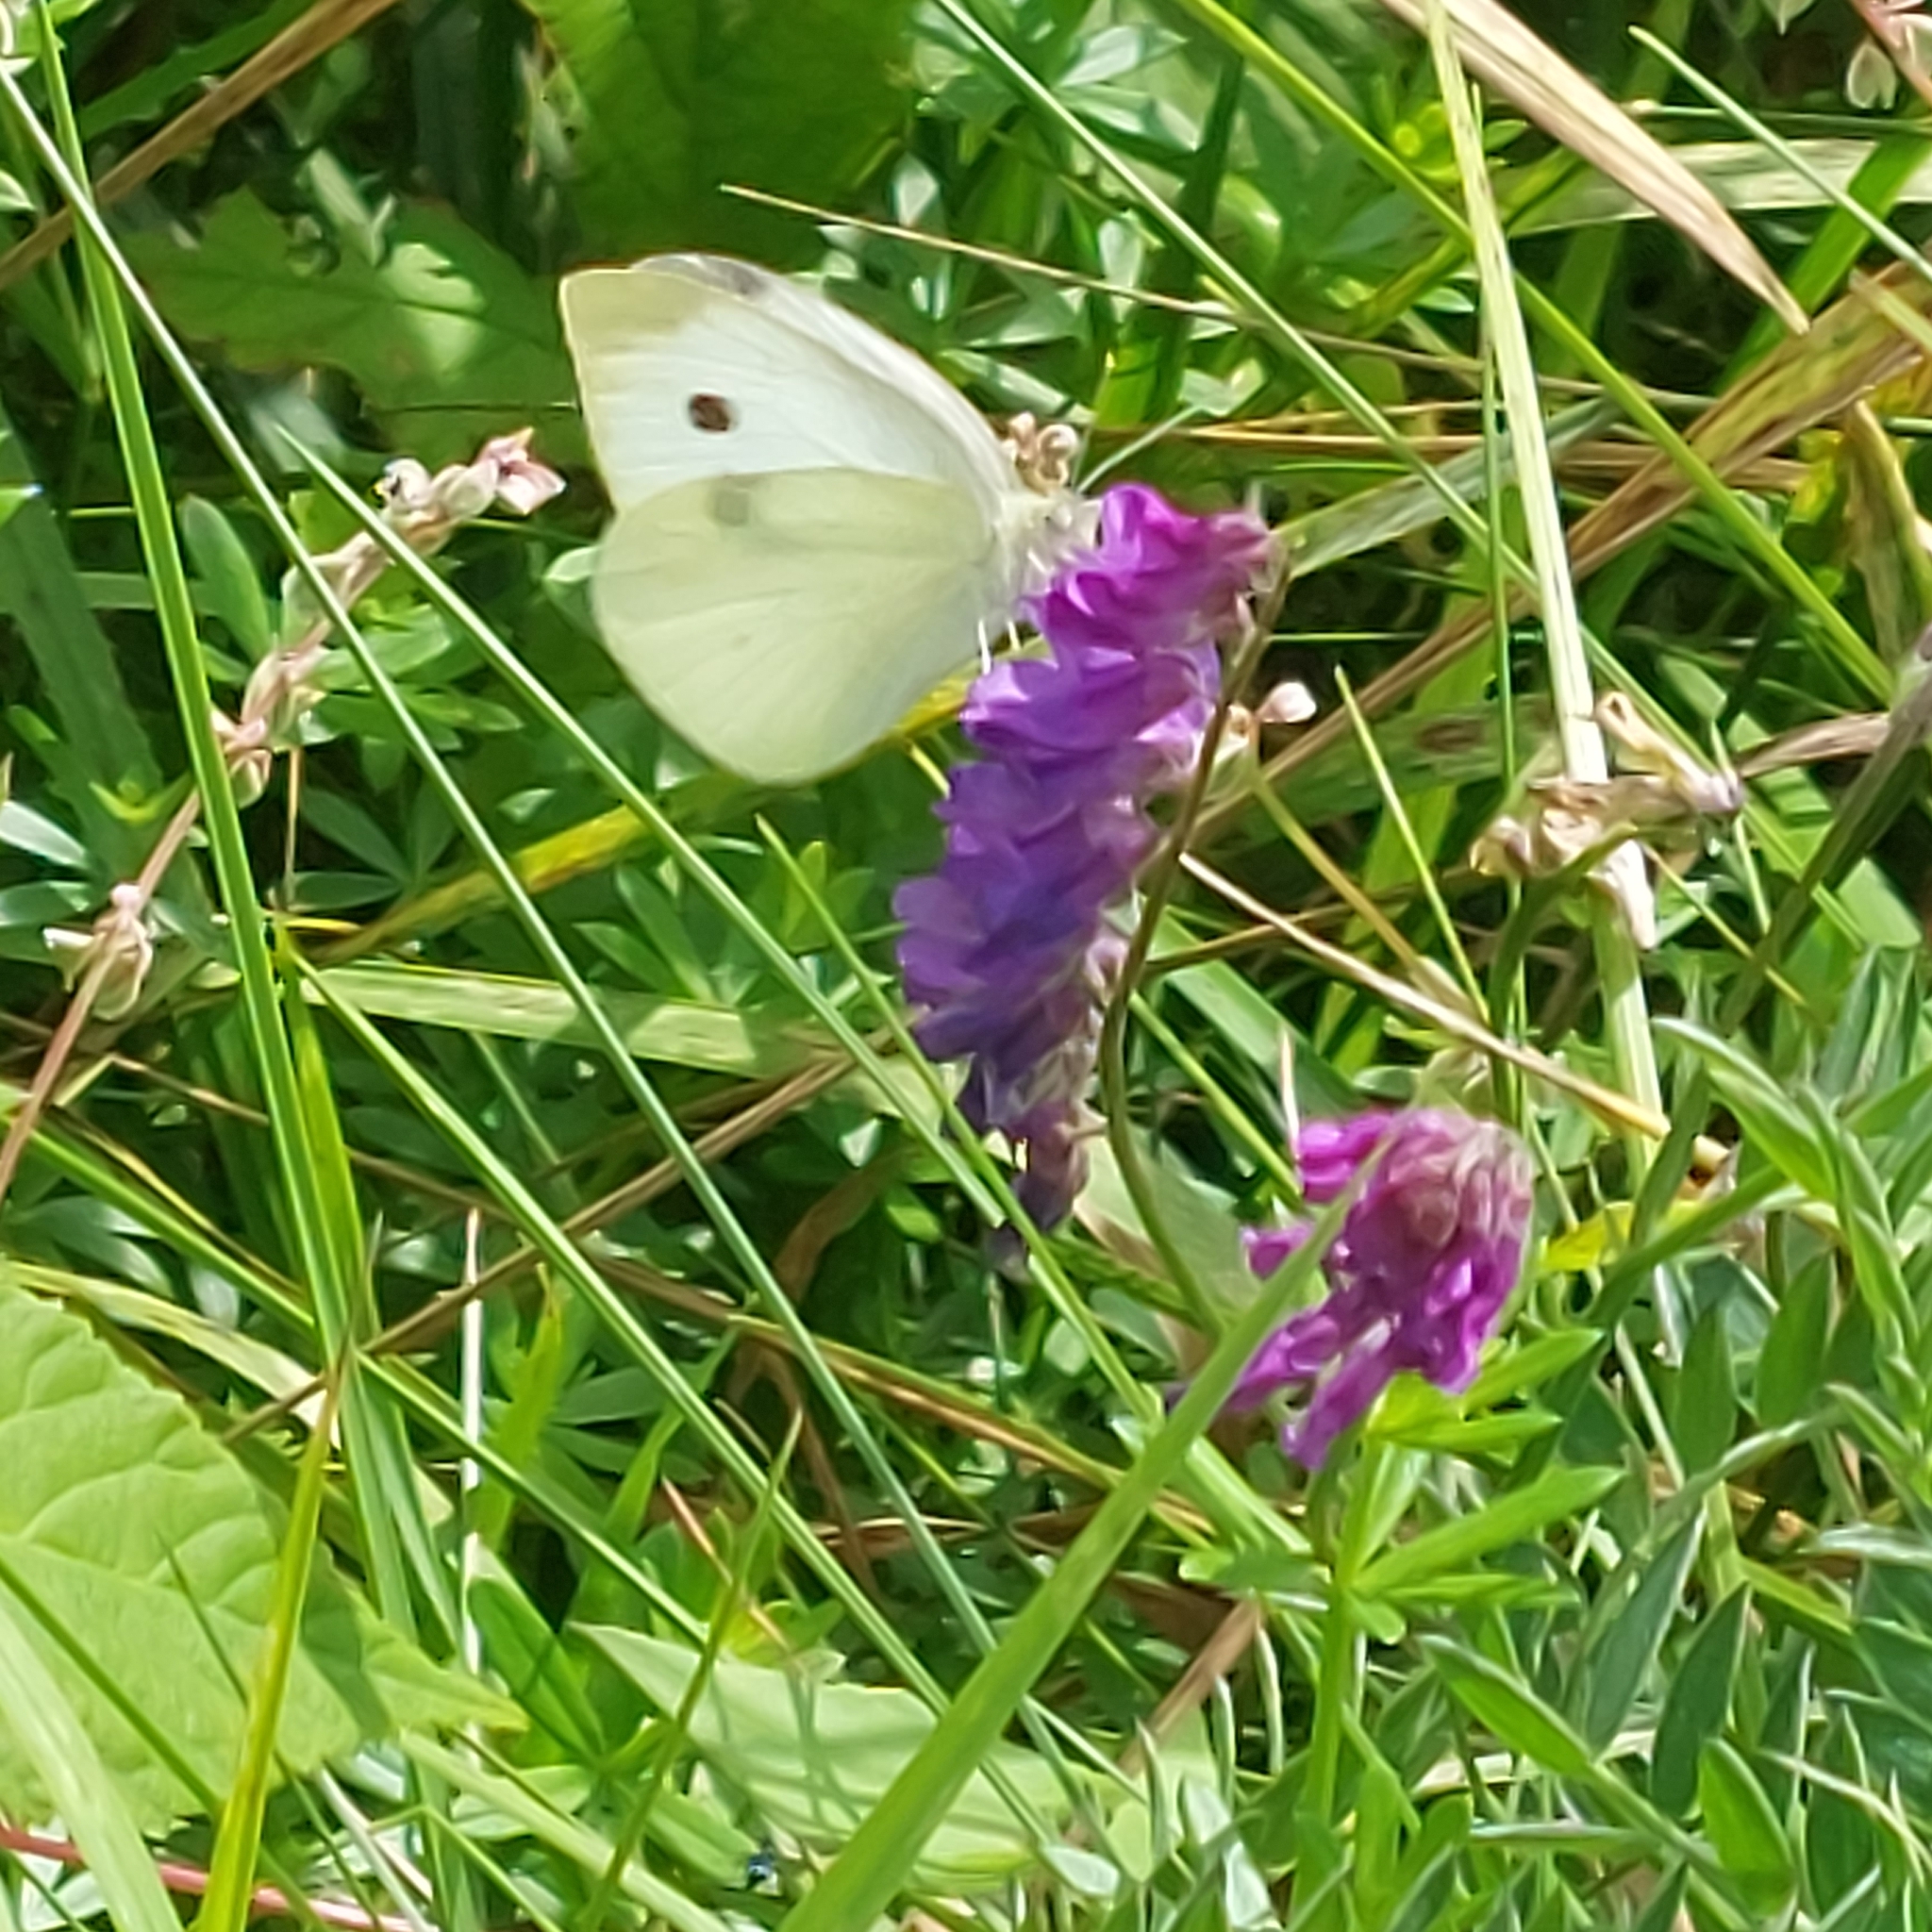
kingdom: Animalia
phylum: Arthropoda
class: Insecta
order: Lepidoptera
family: Pieridae
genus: Pieris
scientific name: Pieris rapae
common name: Small white
